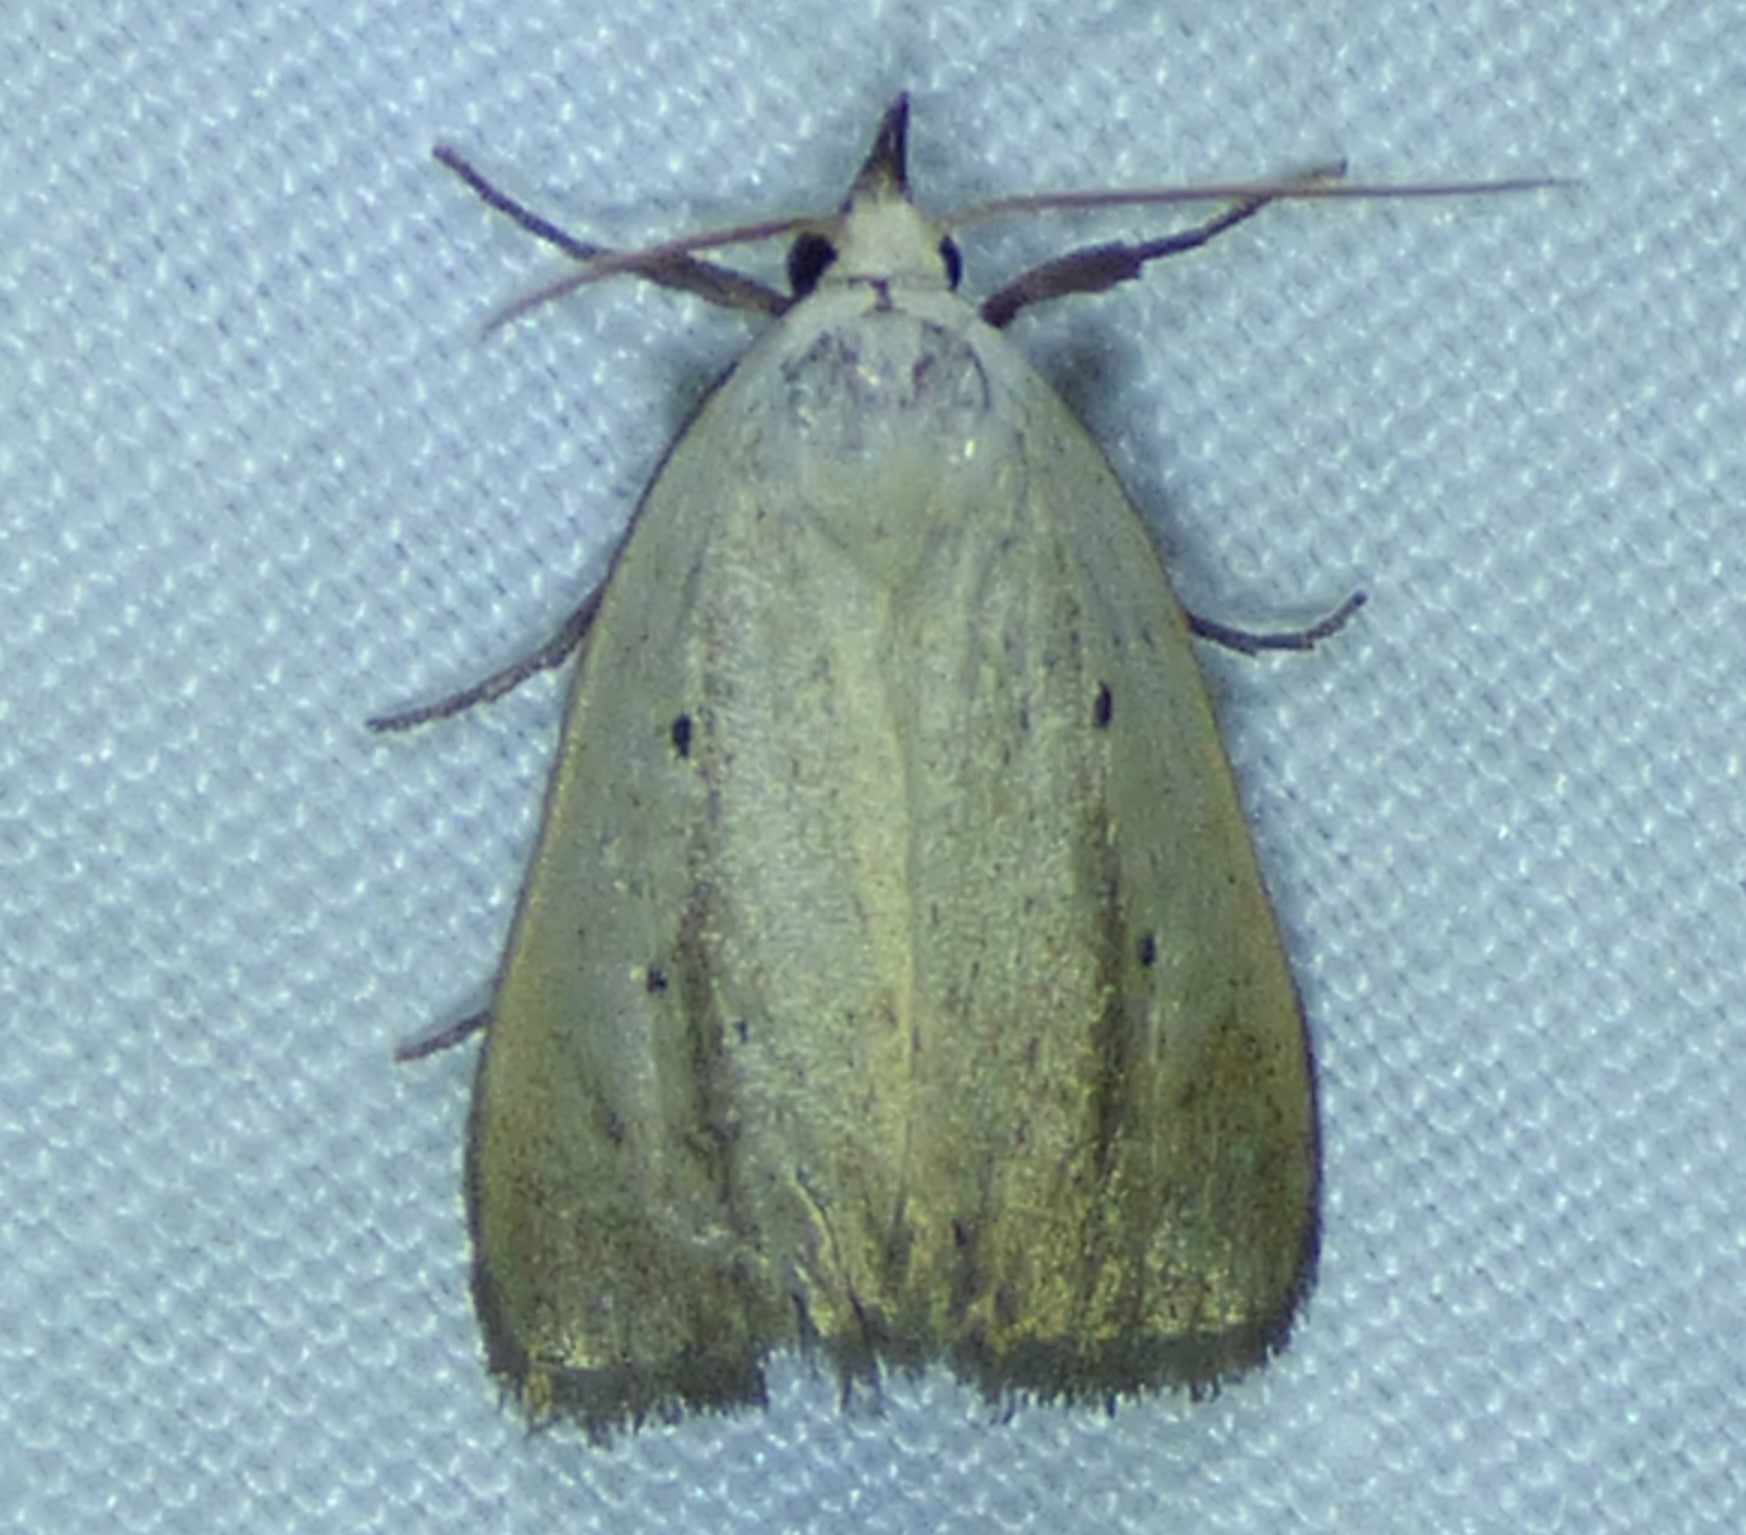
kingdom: Animalia
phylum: Arthropoda
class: Insecta
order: Lepidoptera
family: Noctuidae
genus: Marimatha
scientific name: Marimatha nigrofimbria
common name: Black-bordered lemon moth
